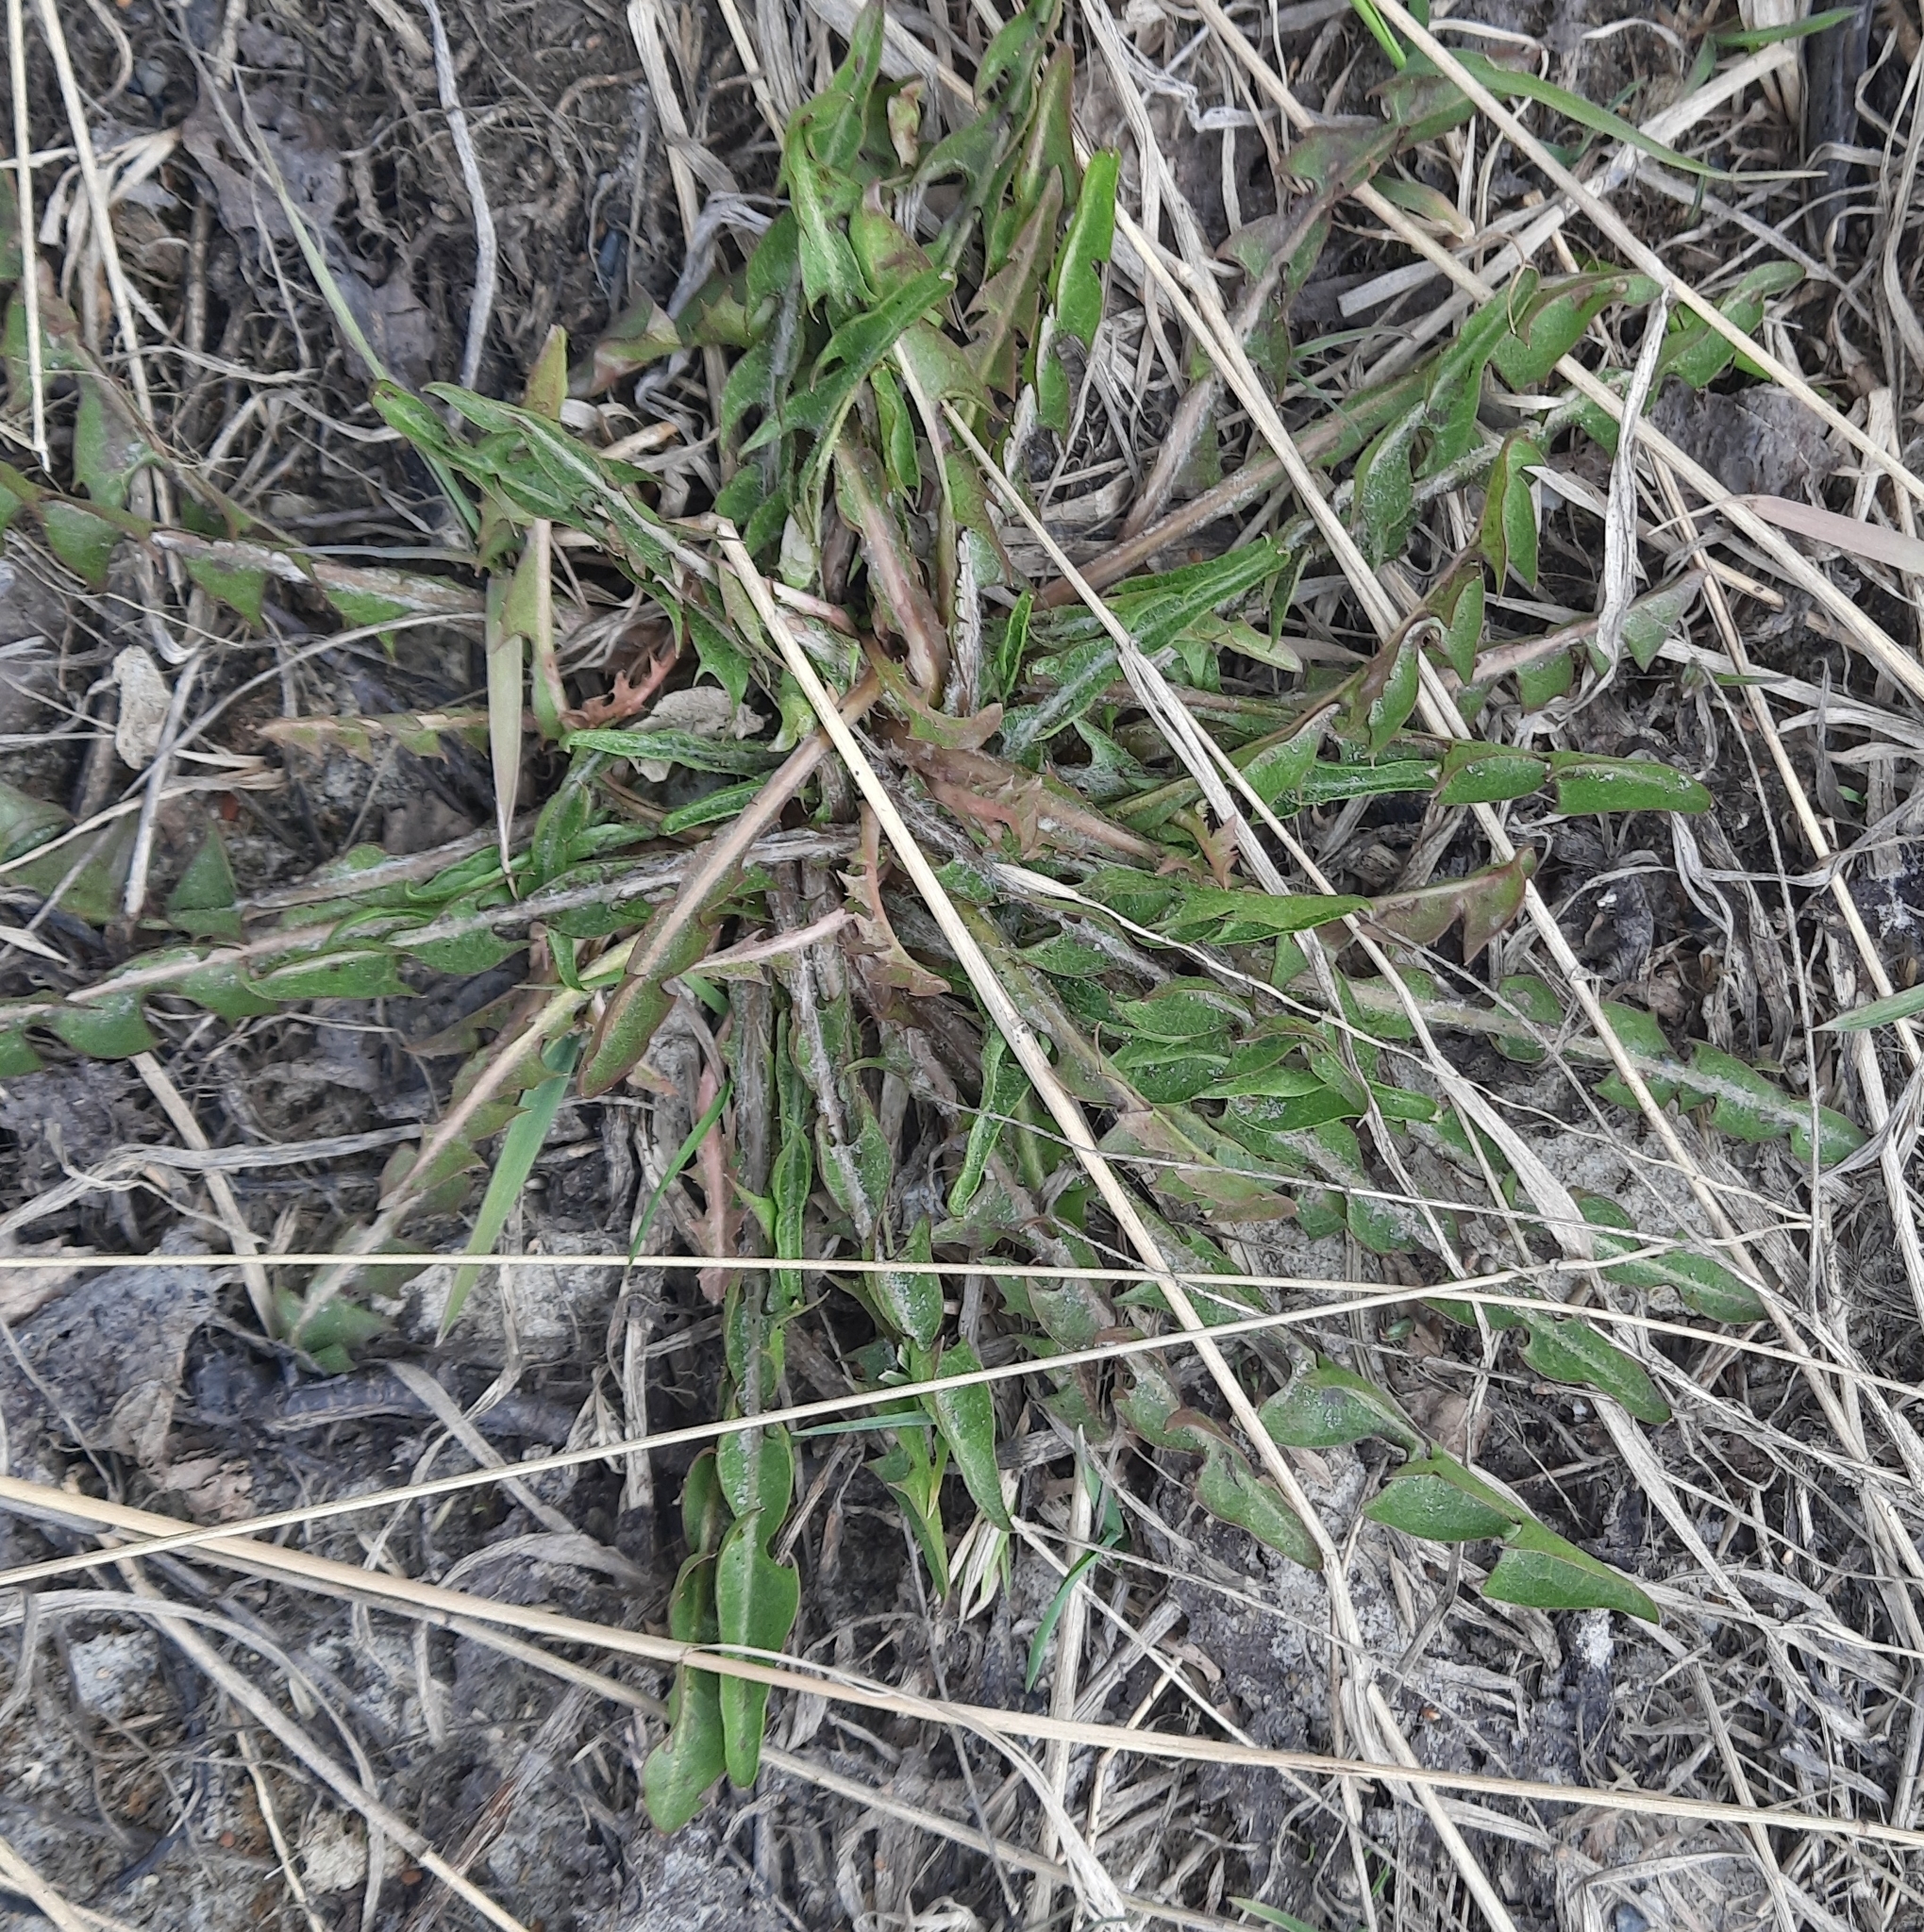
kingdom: Plantae
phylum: Tracheophyta
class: Magnoliopsida
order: Asterales
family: Asteraceae
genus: Taraxacum
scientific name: Taraxacum officinale
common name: Common dandelion
